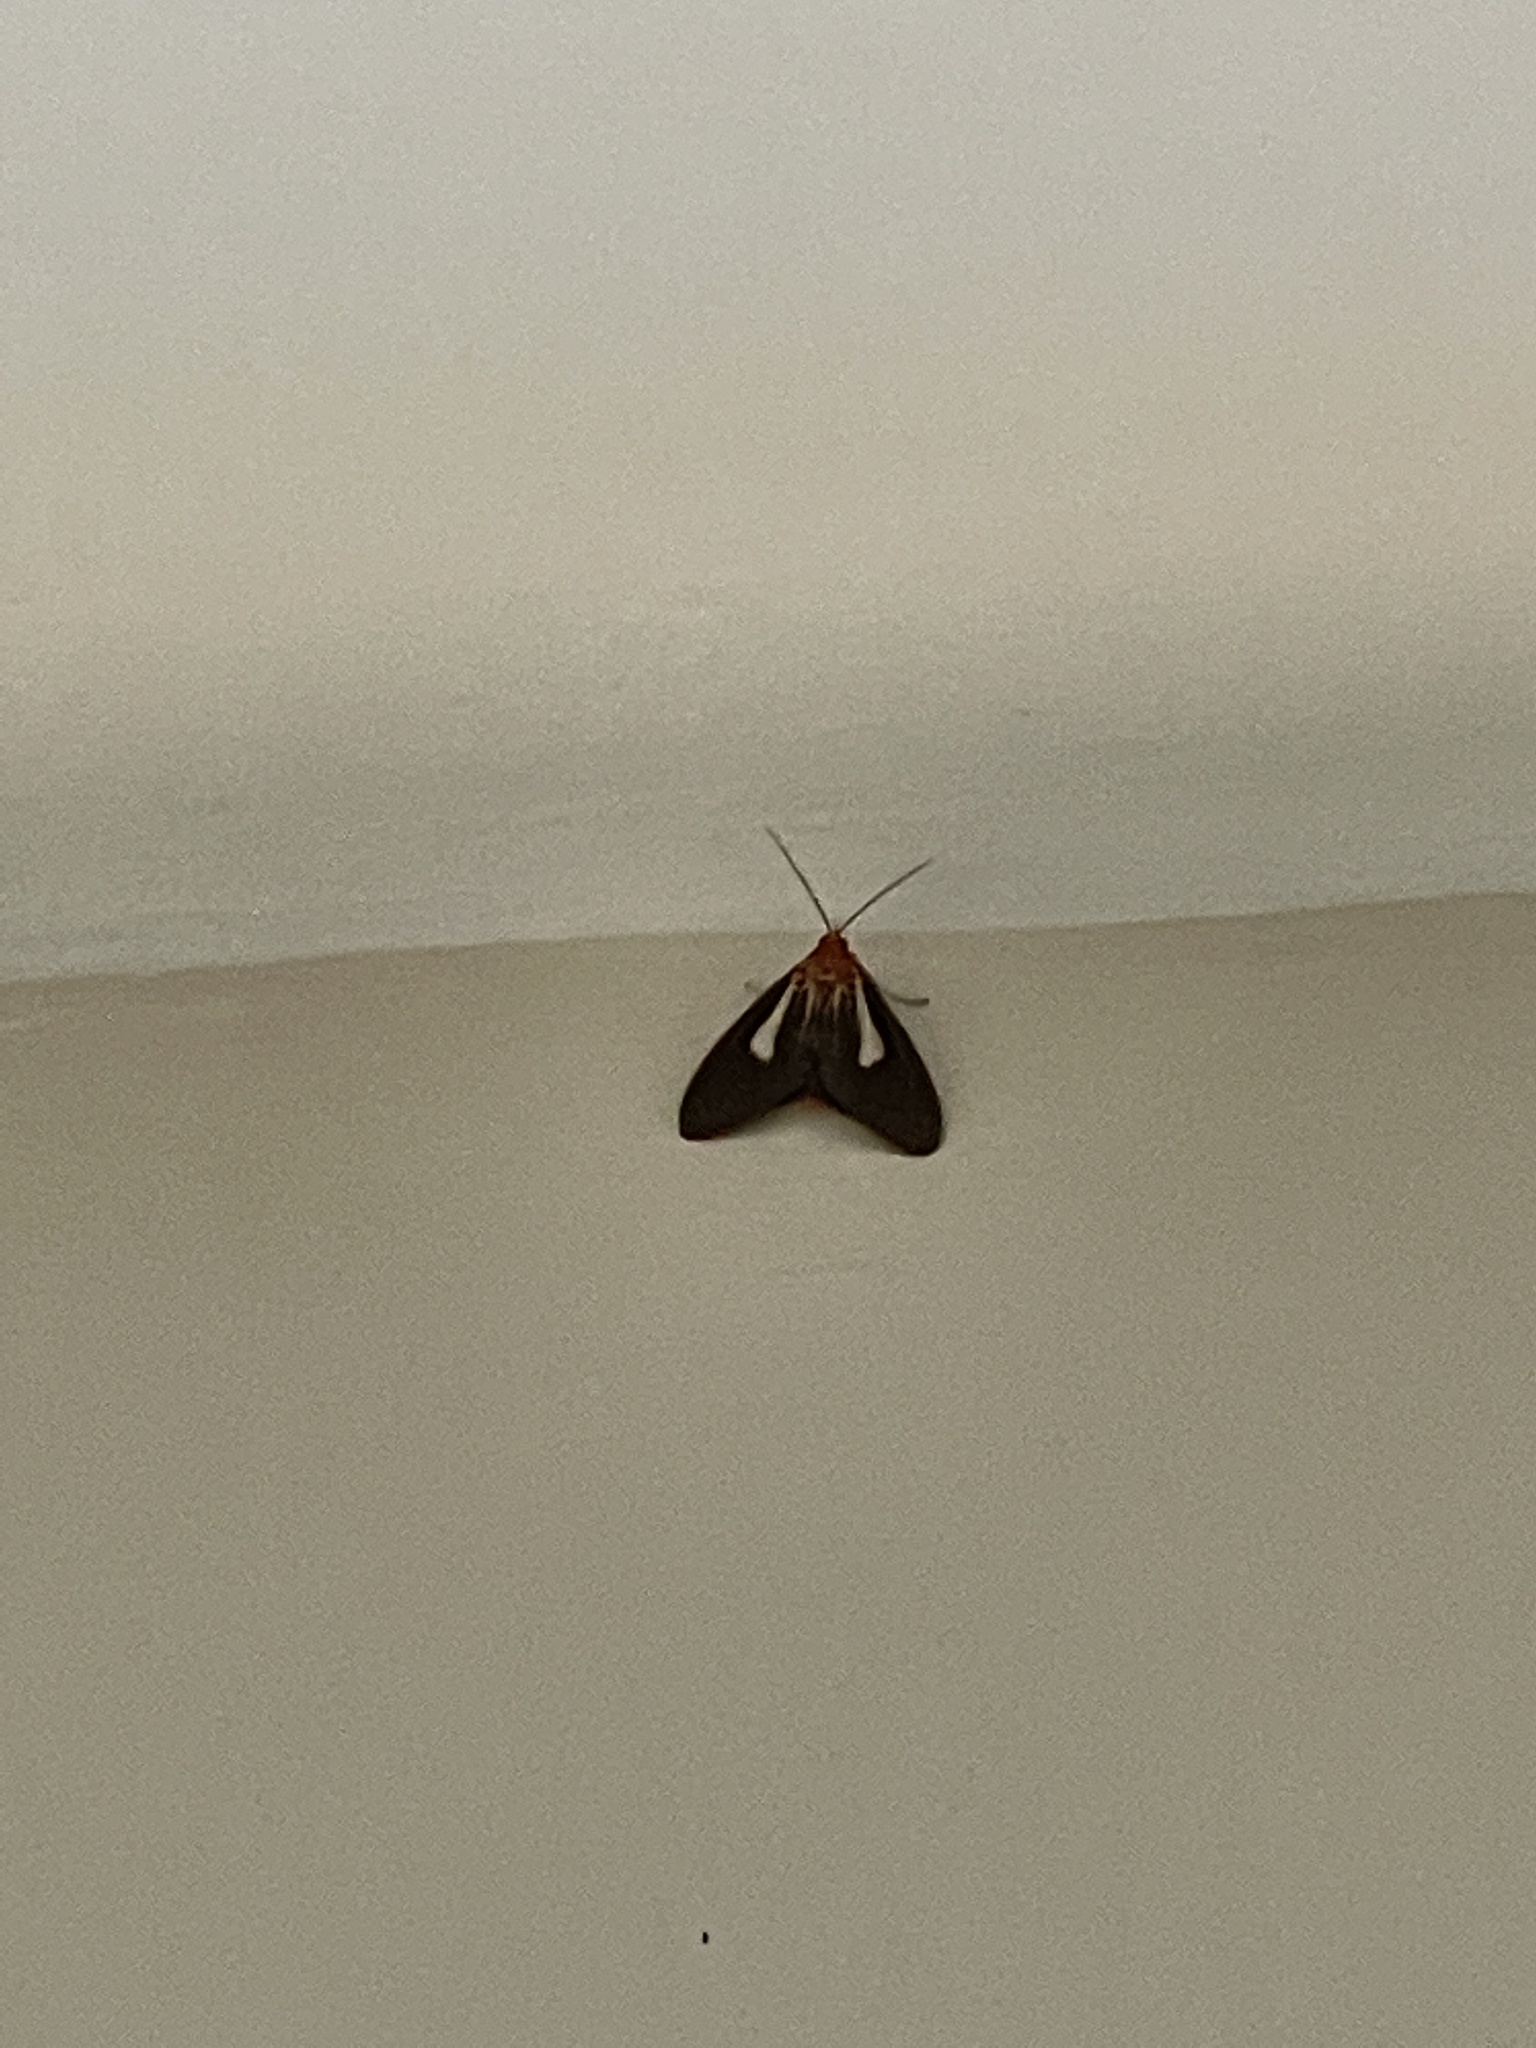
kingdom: Animalia
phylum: Arthropoda
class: Insecta
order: Lepidoptera
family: Erebidae
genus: Asota
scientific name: Asota heliconia
